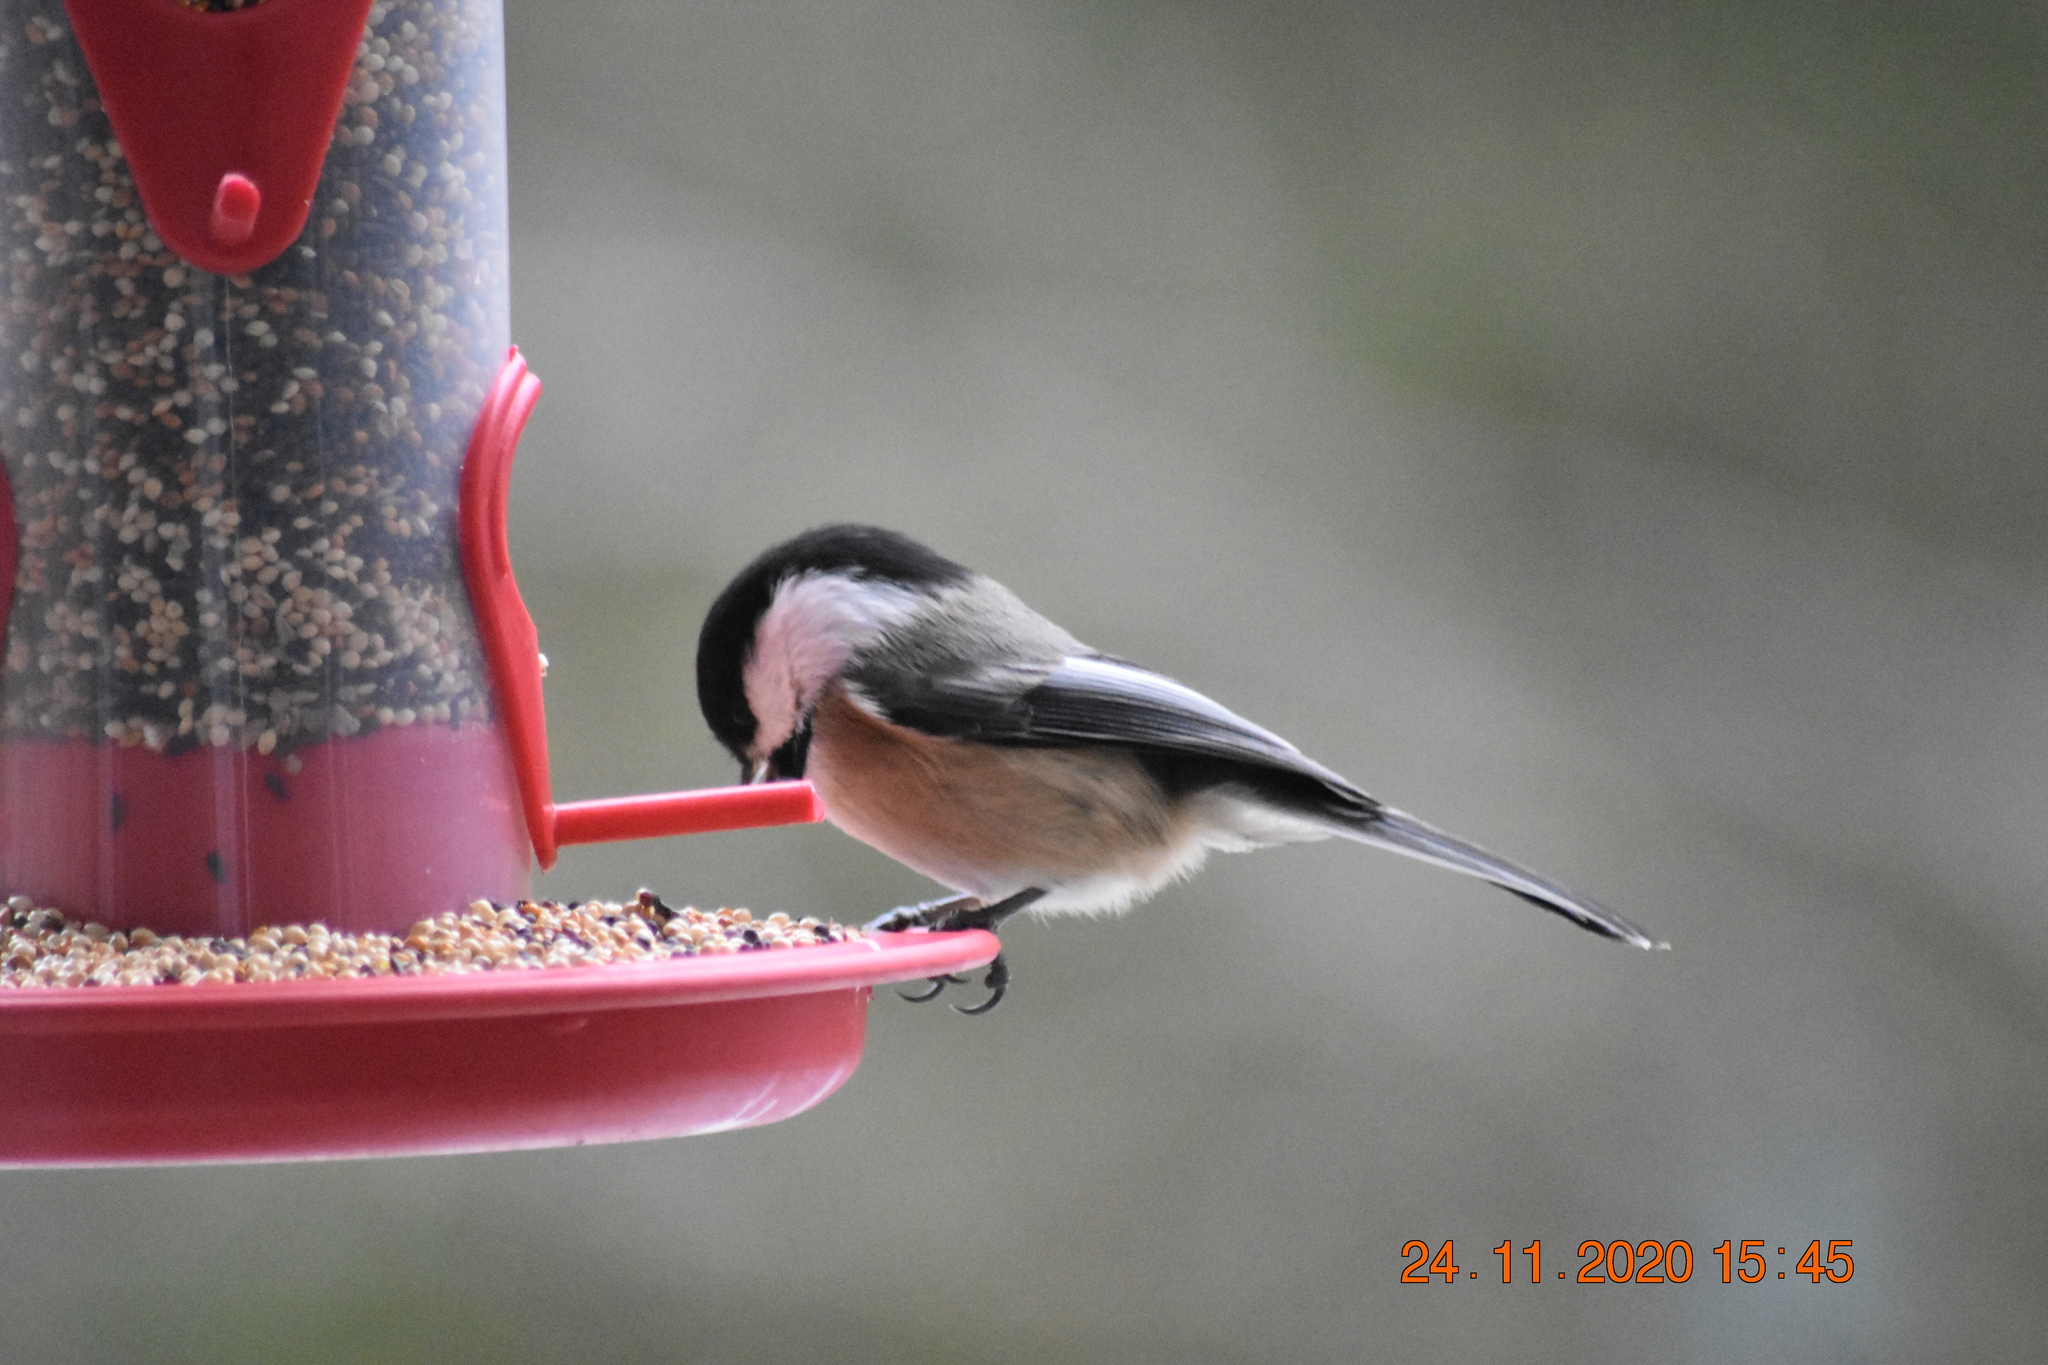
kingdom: Animalia
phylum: Chordata
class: Aves
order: Passeriformes
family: Paridae
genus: Poecile
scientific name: Poecile atricapillus
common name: Black-capped chickadee
